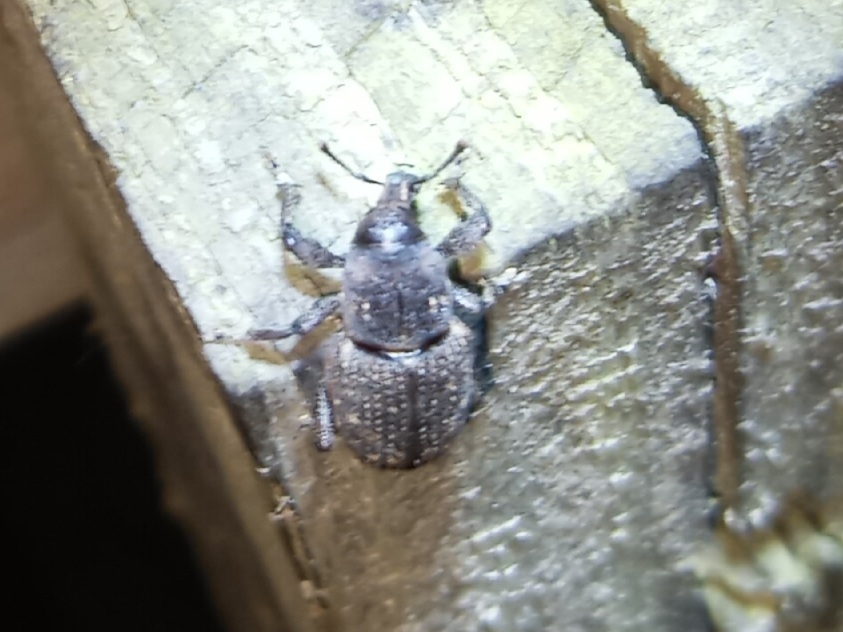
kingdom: Animalia
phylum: Arthropoda
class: Insecta
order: Coleoptera
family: Curculionidae
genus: Pachylobius
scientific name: Pachylobius picivorus
